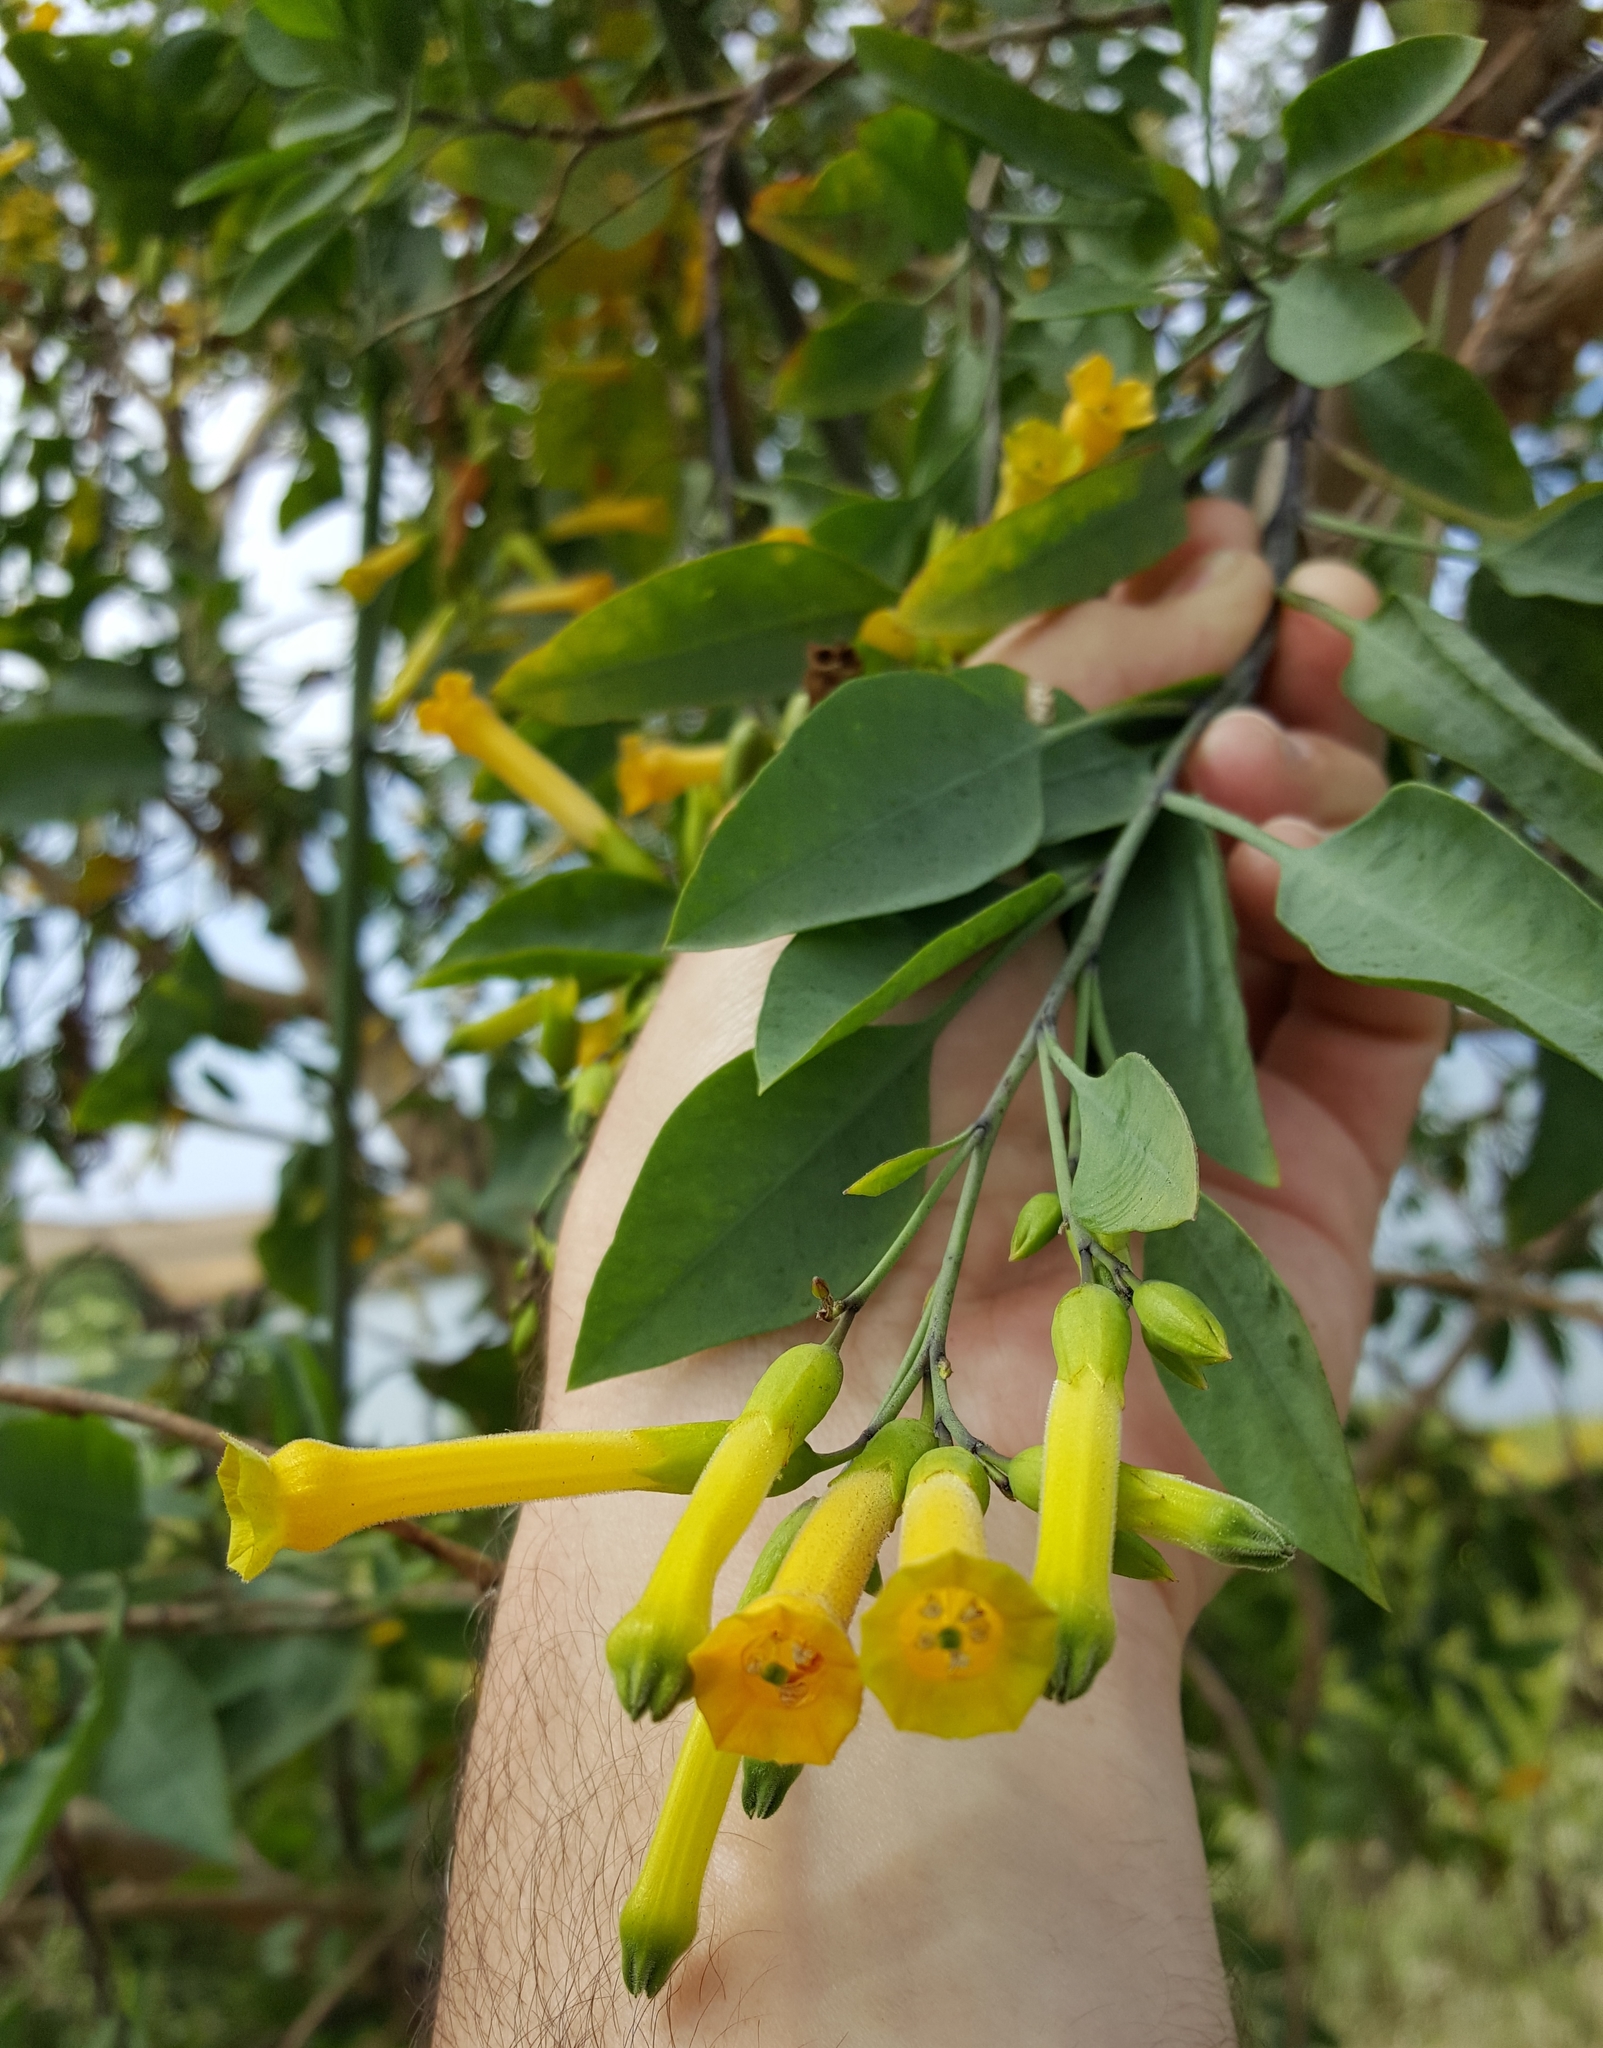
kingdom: Plantae
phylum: Tracheophyta
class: Magnoliopsida
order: Solanales
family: Solanaceae
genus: Nicotiana
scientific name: Nicotiana glauca
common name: Tree tobacco
